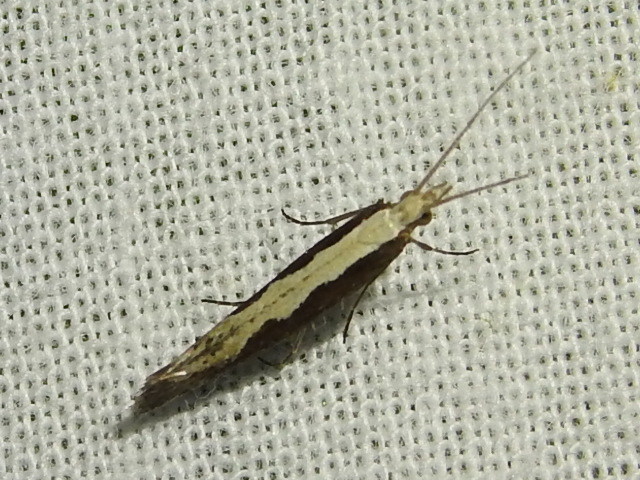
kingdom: Animalia
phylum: Arthropoda
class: Insecta
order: Lepidoptera
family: Plutellidae
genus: Plutella
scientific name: Plutella xylostella
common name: Diamond-back moth
